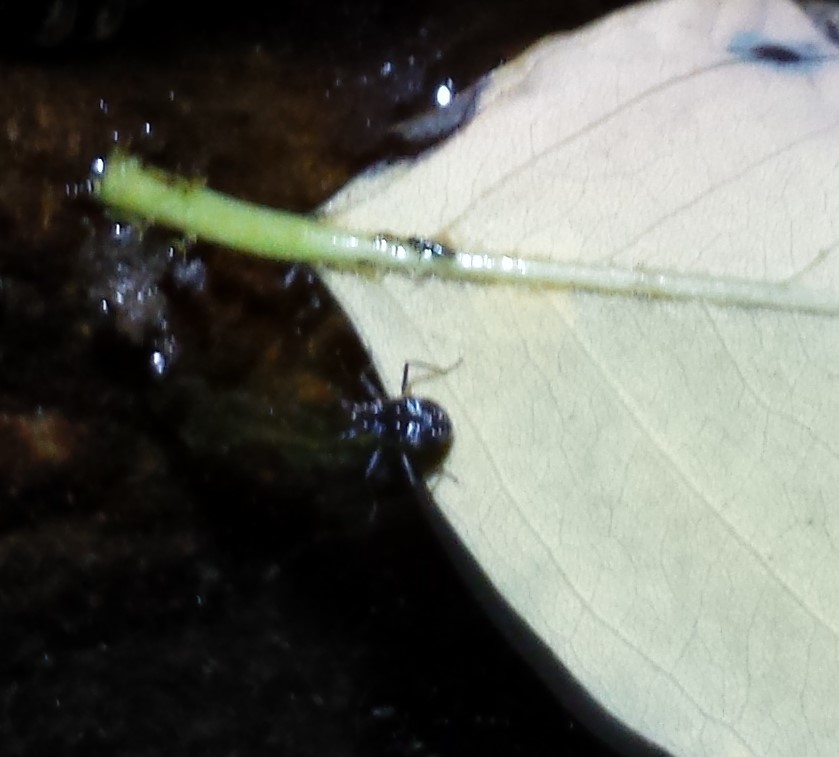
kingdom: Animalia
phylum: Arthropoda
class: Insecta
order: Hemiptera
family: Veliidae
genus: Microvelia
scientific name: Microvelia americana
